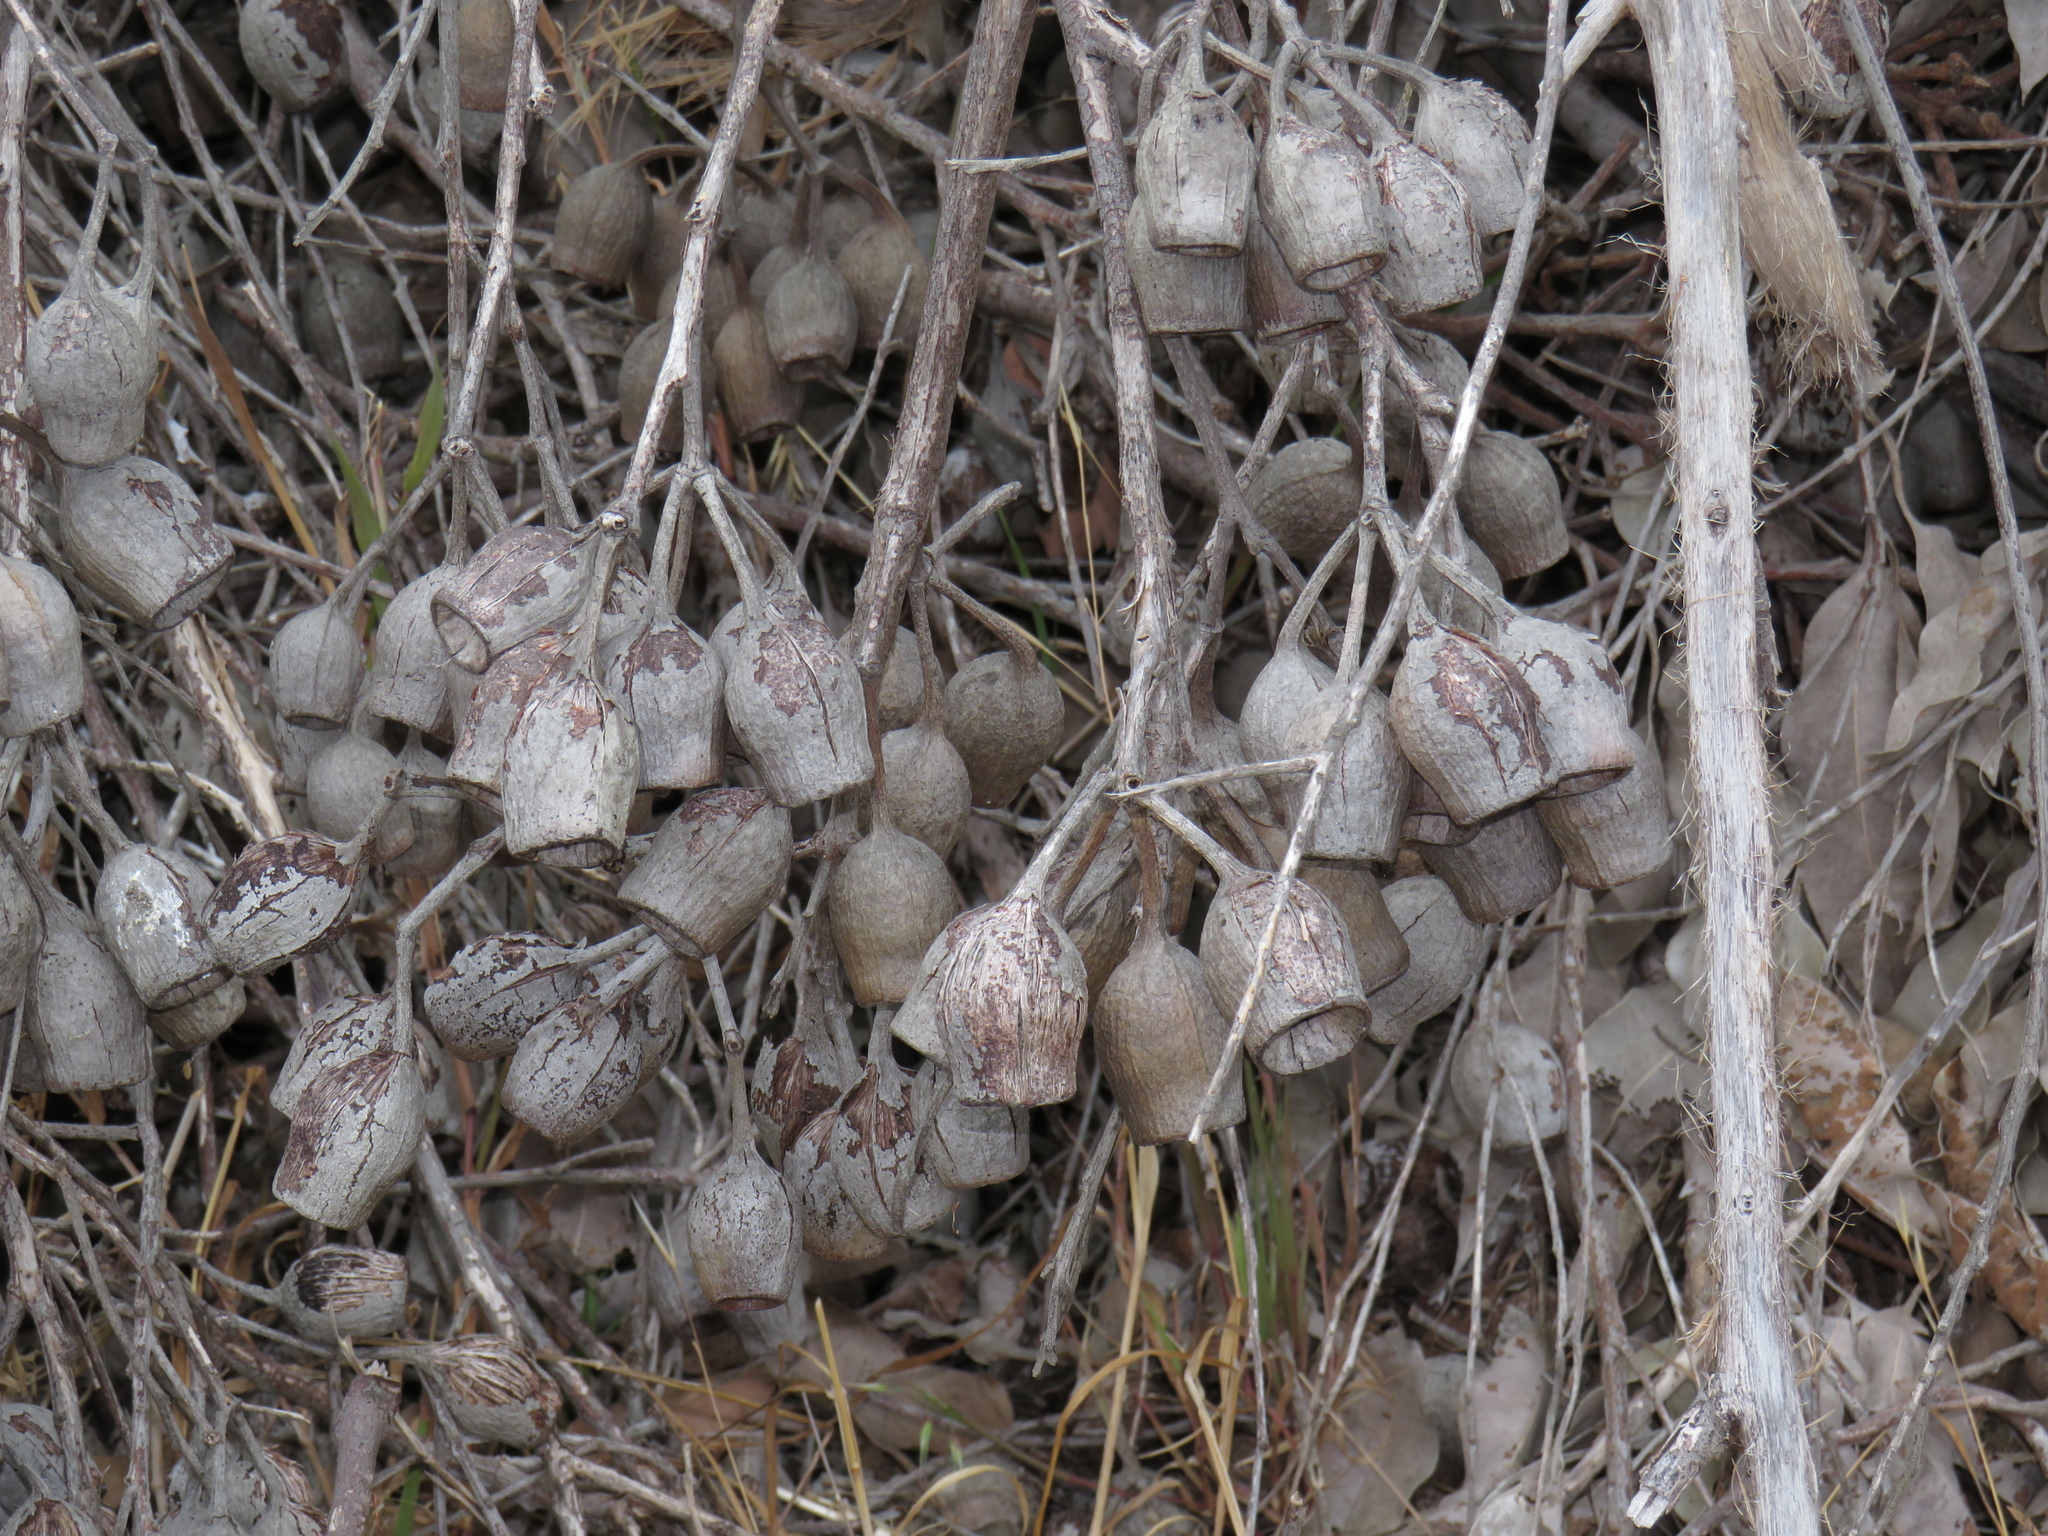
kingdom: Plantae
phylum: Tracheophyta
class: Magnoliopsida
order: Myrtales
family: Myrtaceae
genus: Corymbia
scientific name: Corymbia calophylla
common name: Marri
